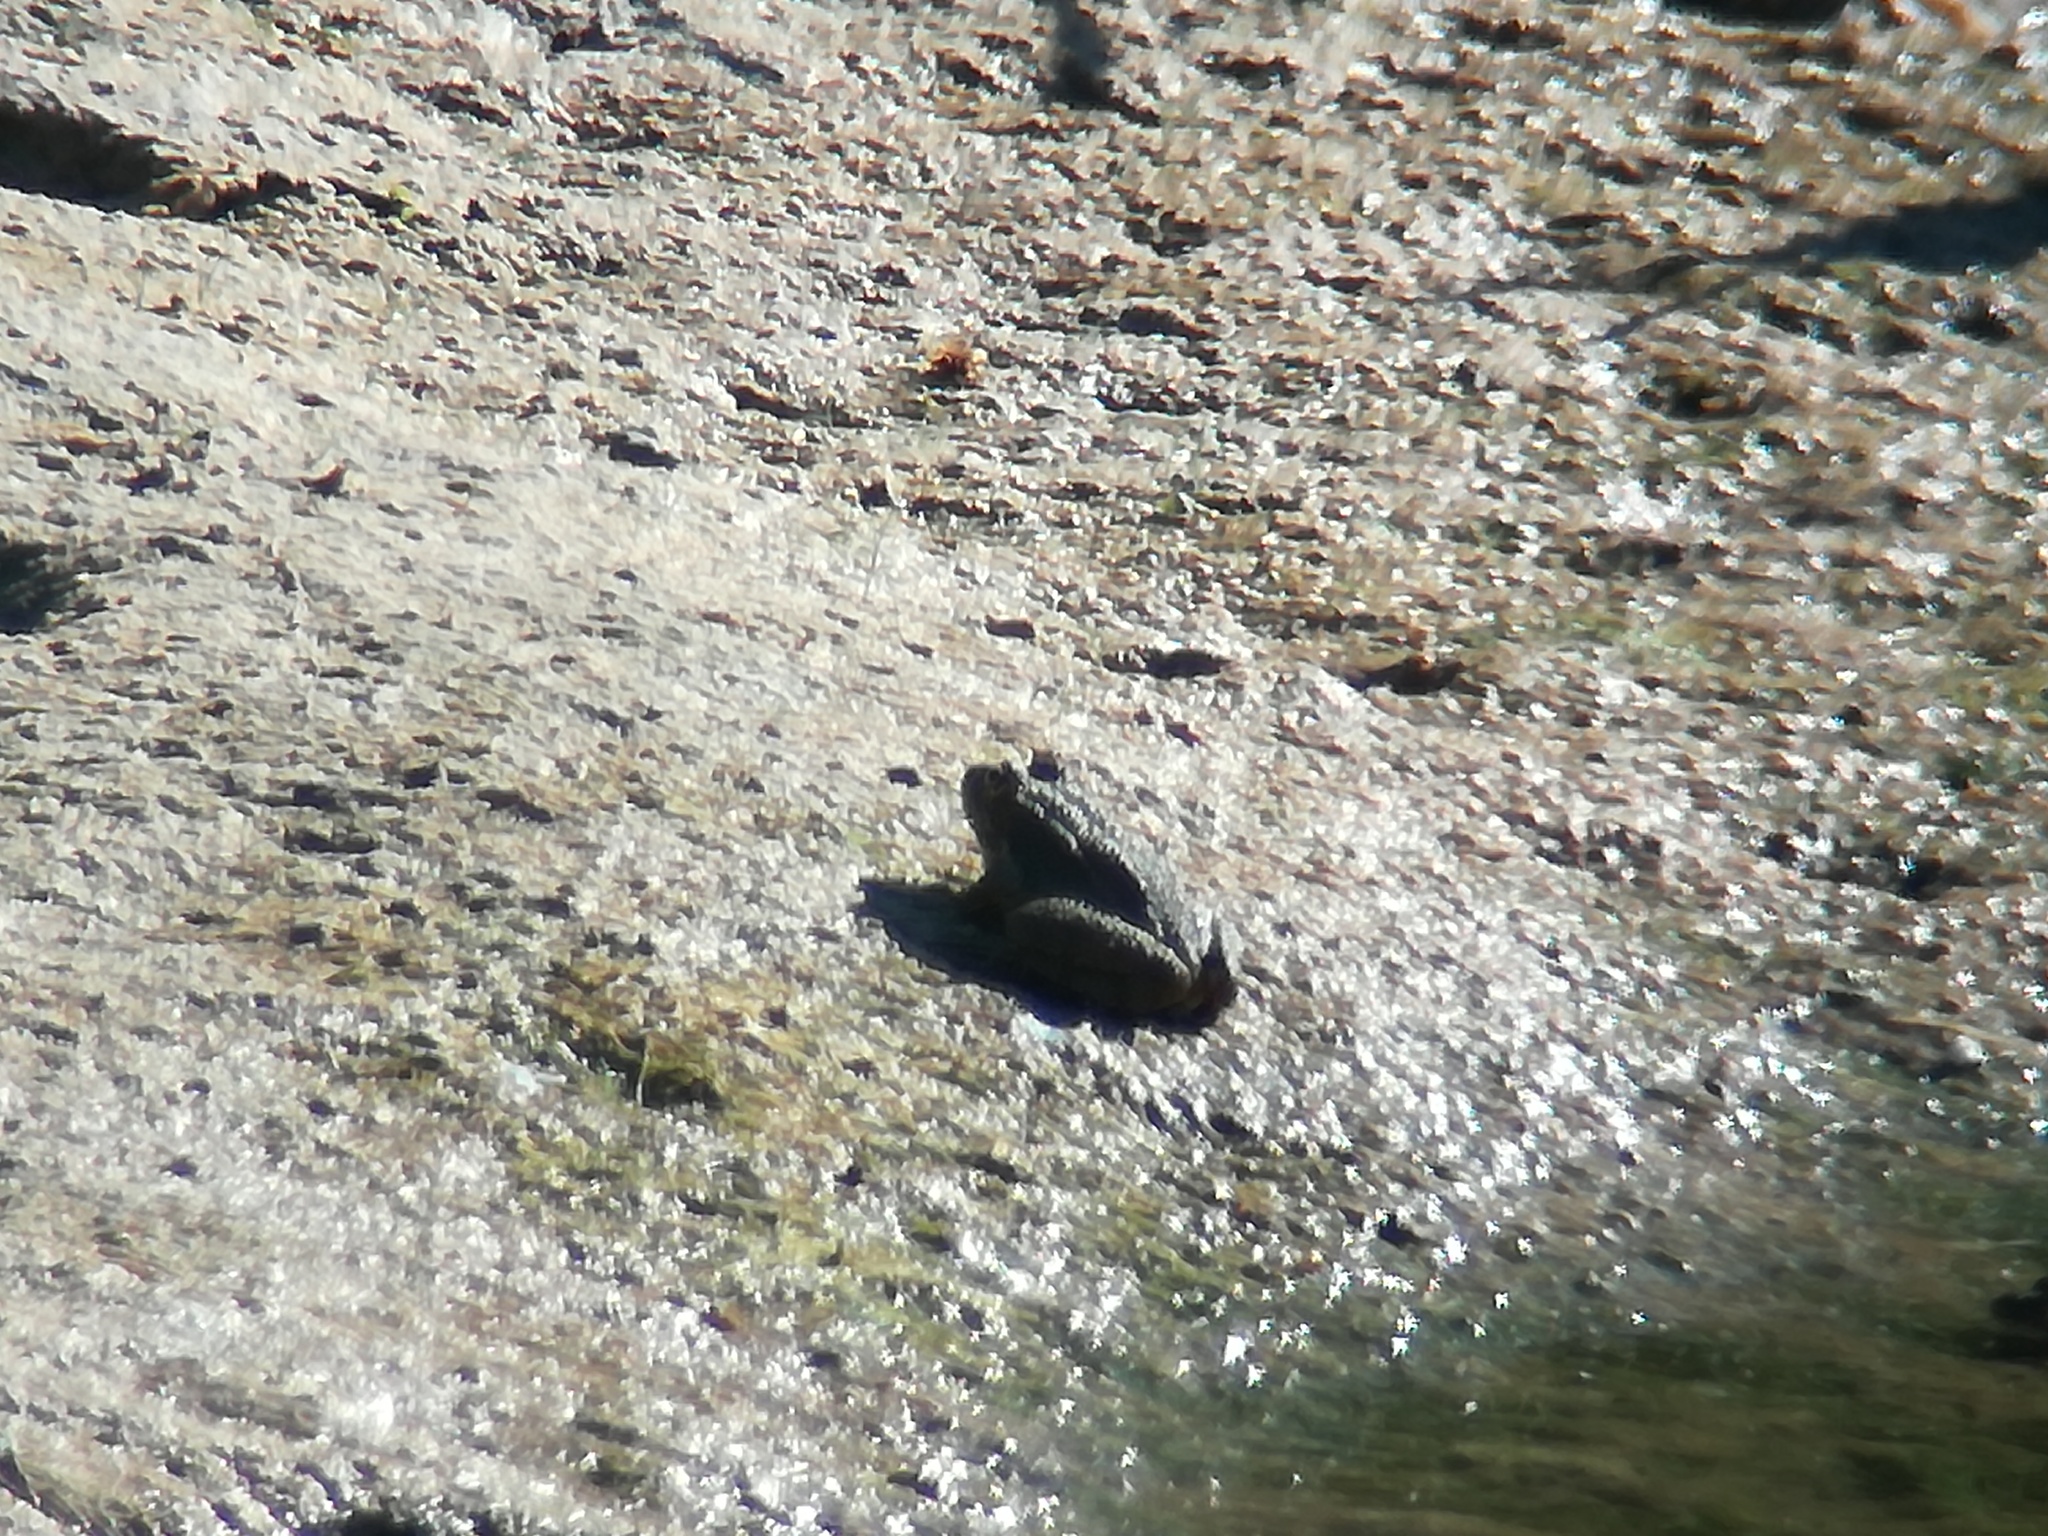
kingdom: Animalia
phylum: Chordata
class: Amphibia
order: Anura
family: Ranidae
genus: Pelophylax
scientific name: Pelophylax perezi
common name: Perez's frog
